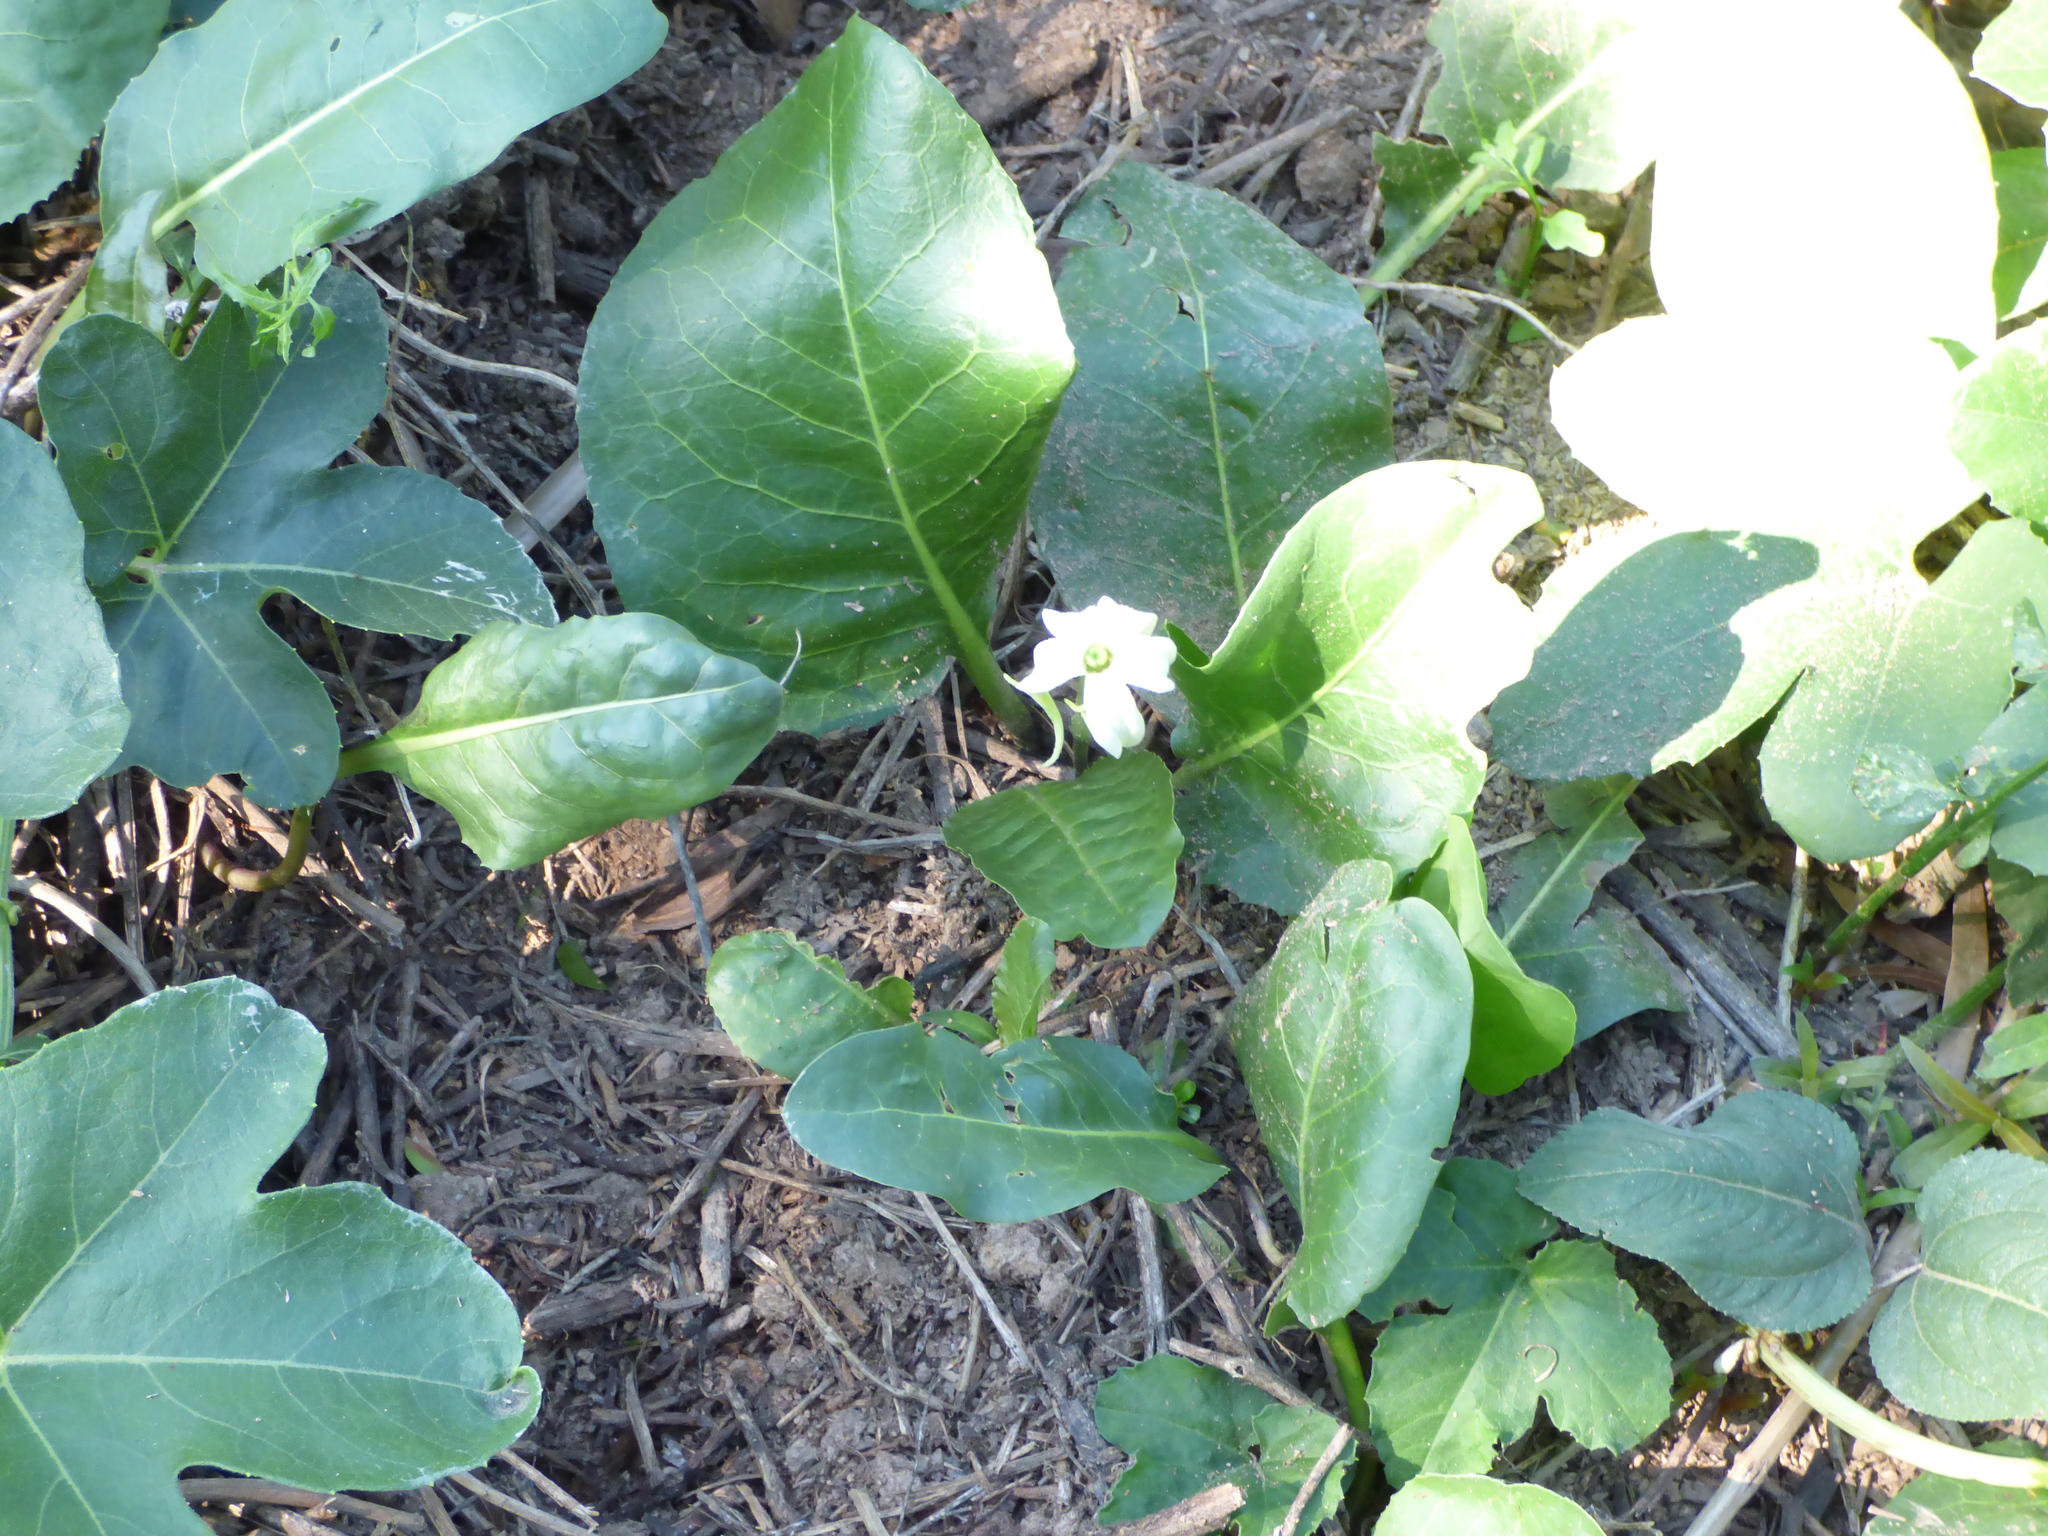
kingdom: Plantae
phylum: Tracheophyta
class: Magnoliopsida
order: Solanales
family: Solanaceae
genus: Jaborosa
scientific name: Jaborosa integrifolia
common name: Springblossom
